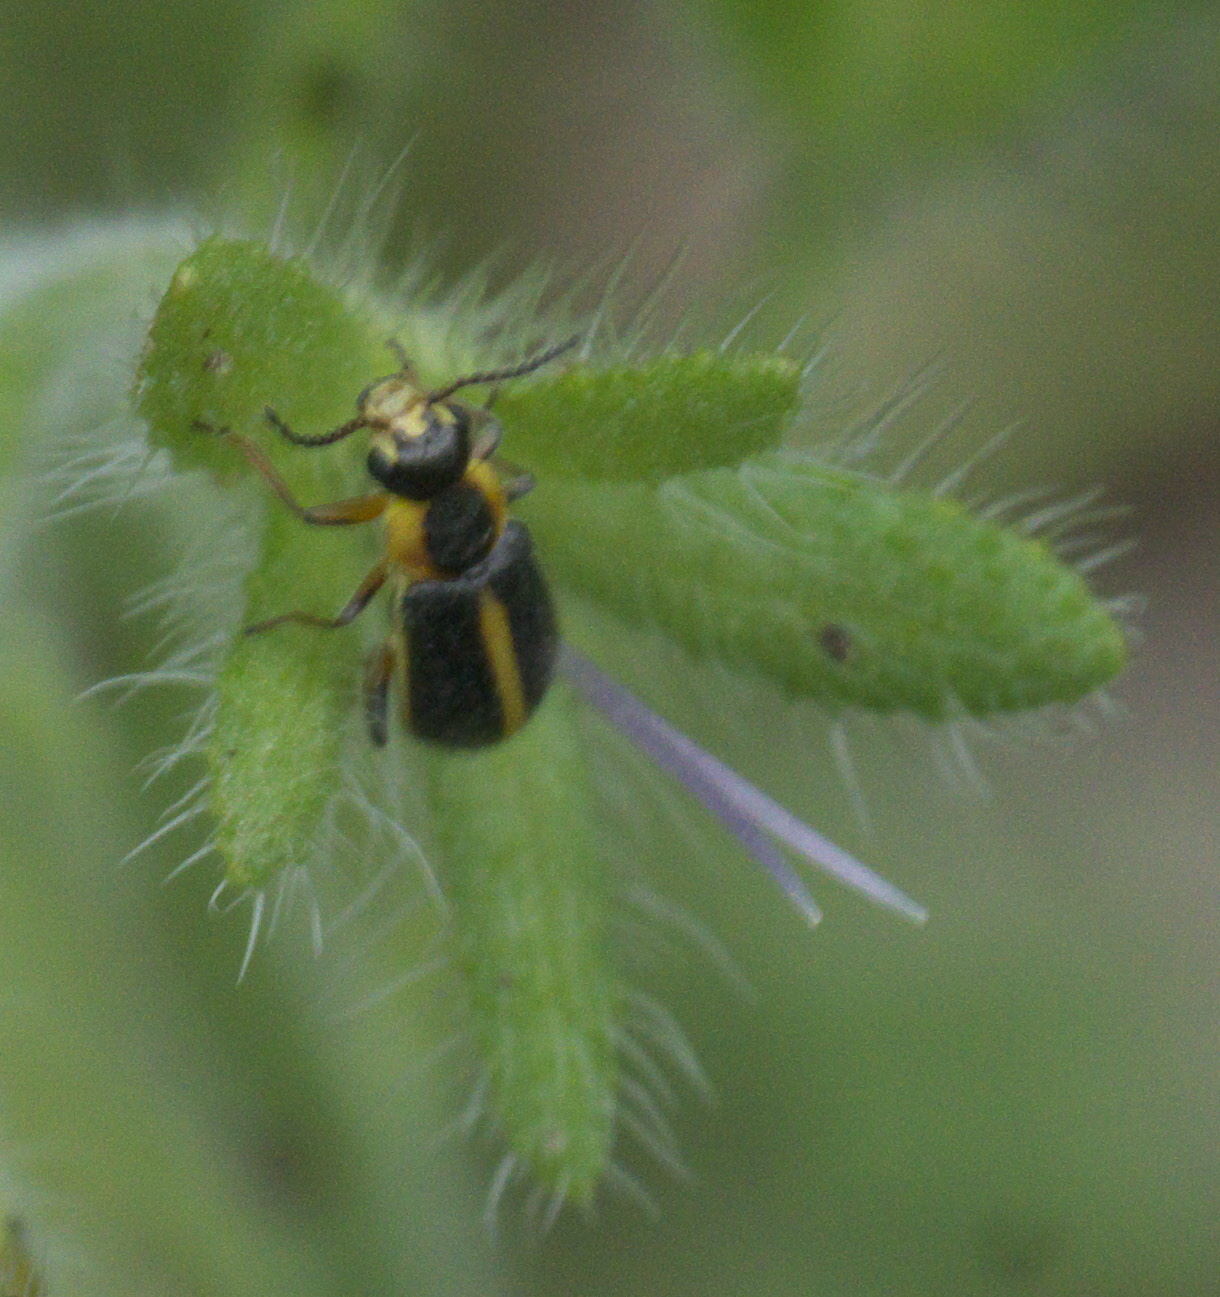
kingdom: Animalia
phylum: Arthropoda
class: Insecta
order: Coleoptera
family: Malachiidae
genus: Attalus
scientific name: Attalus
